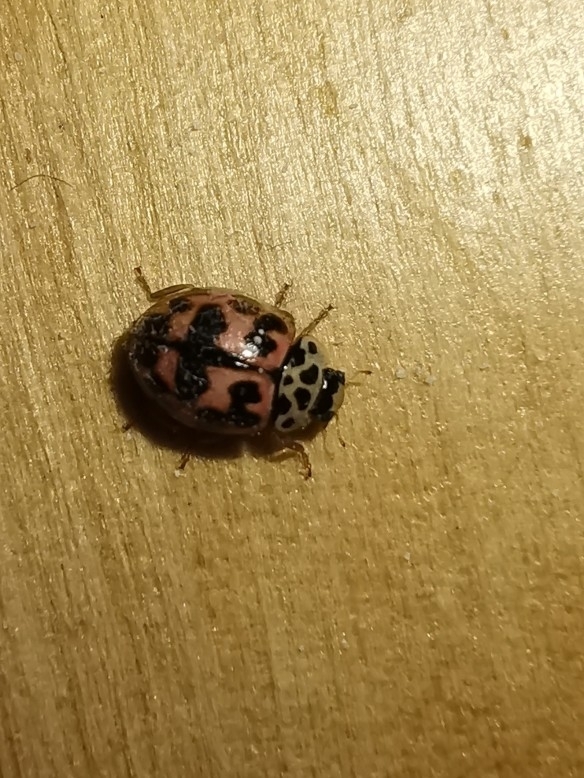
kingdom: Animalia
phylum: Arthropoda
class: Insecta
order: Coleoptera
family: Coccinellidae
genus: Oenopia
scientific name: Oenopia conglobata
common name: Ladybird beetle
